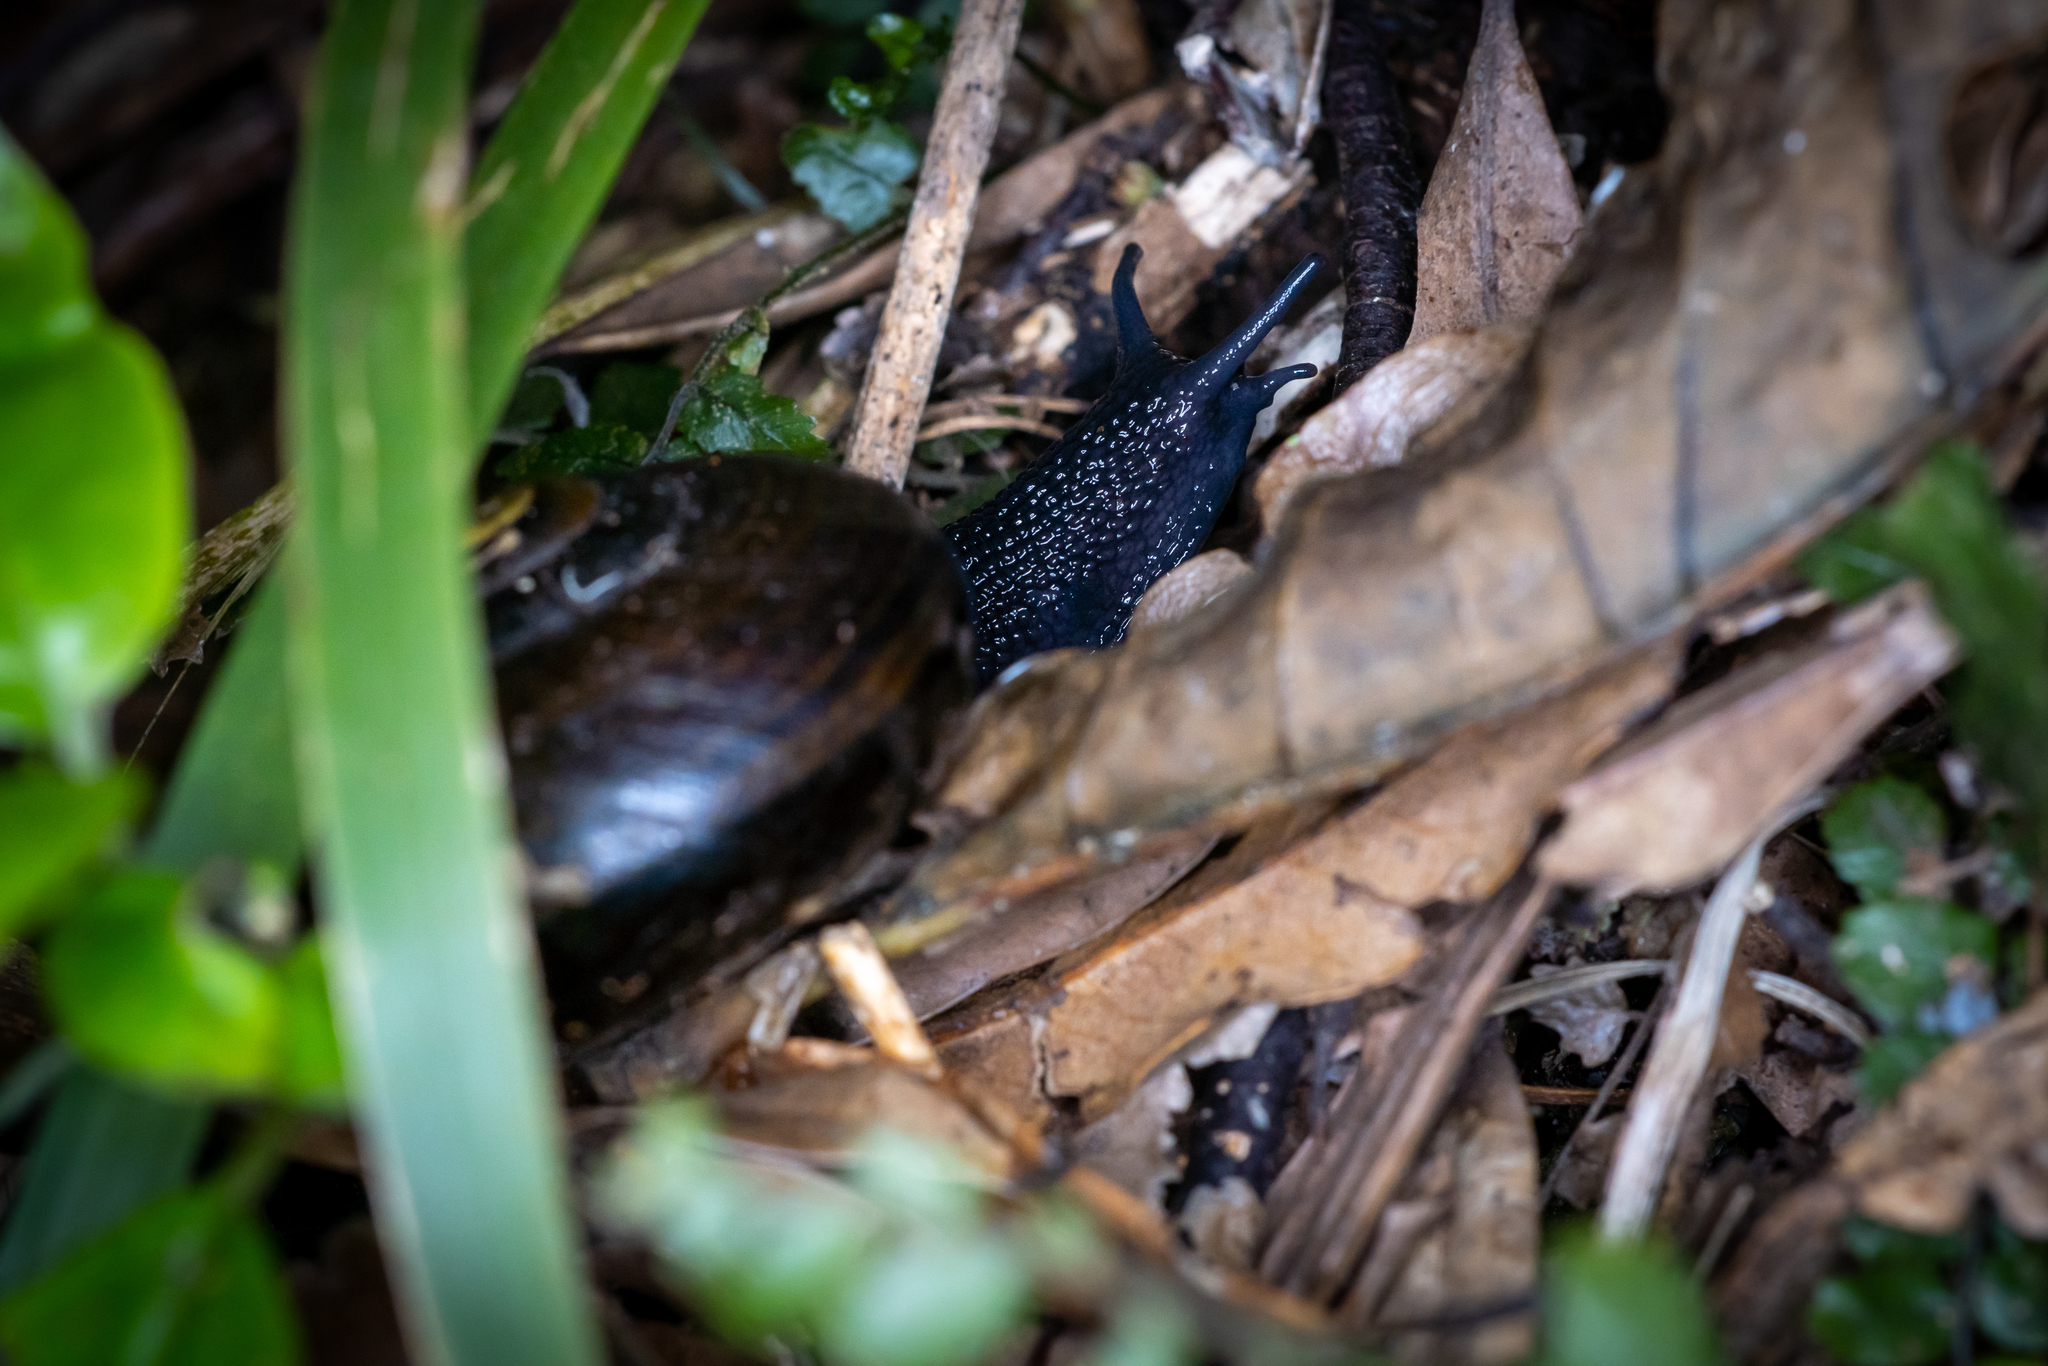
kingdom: Animalia
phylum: Mollusca
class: Gastropoda
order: Stylommatophora
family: Rhytididae
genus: Powelliphanta
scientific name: Powelliphanta traversi
